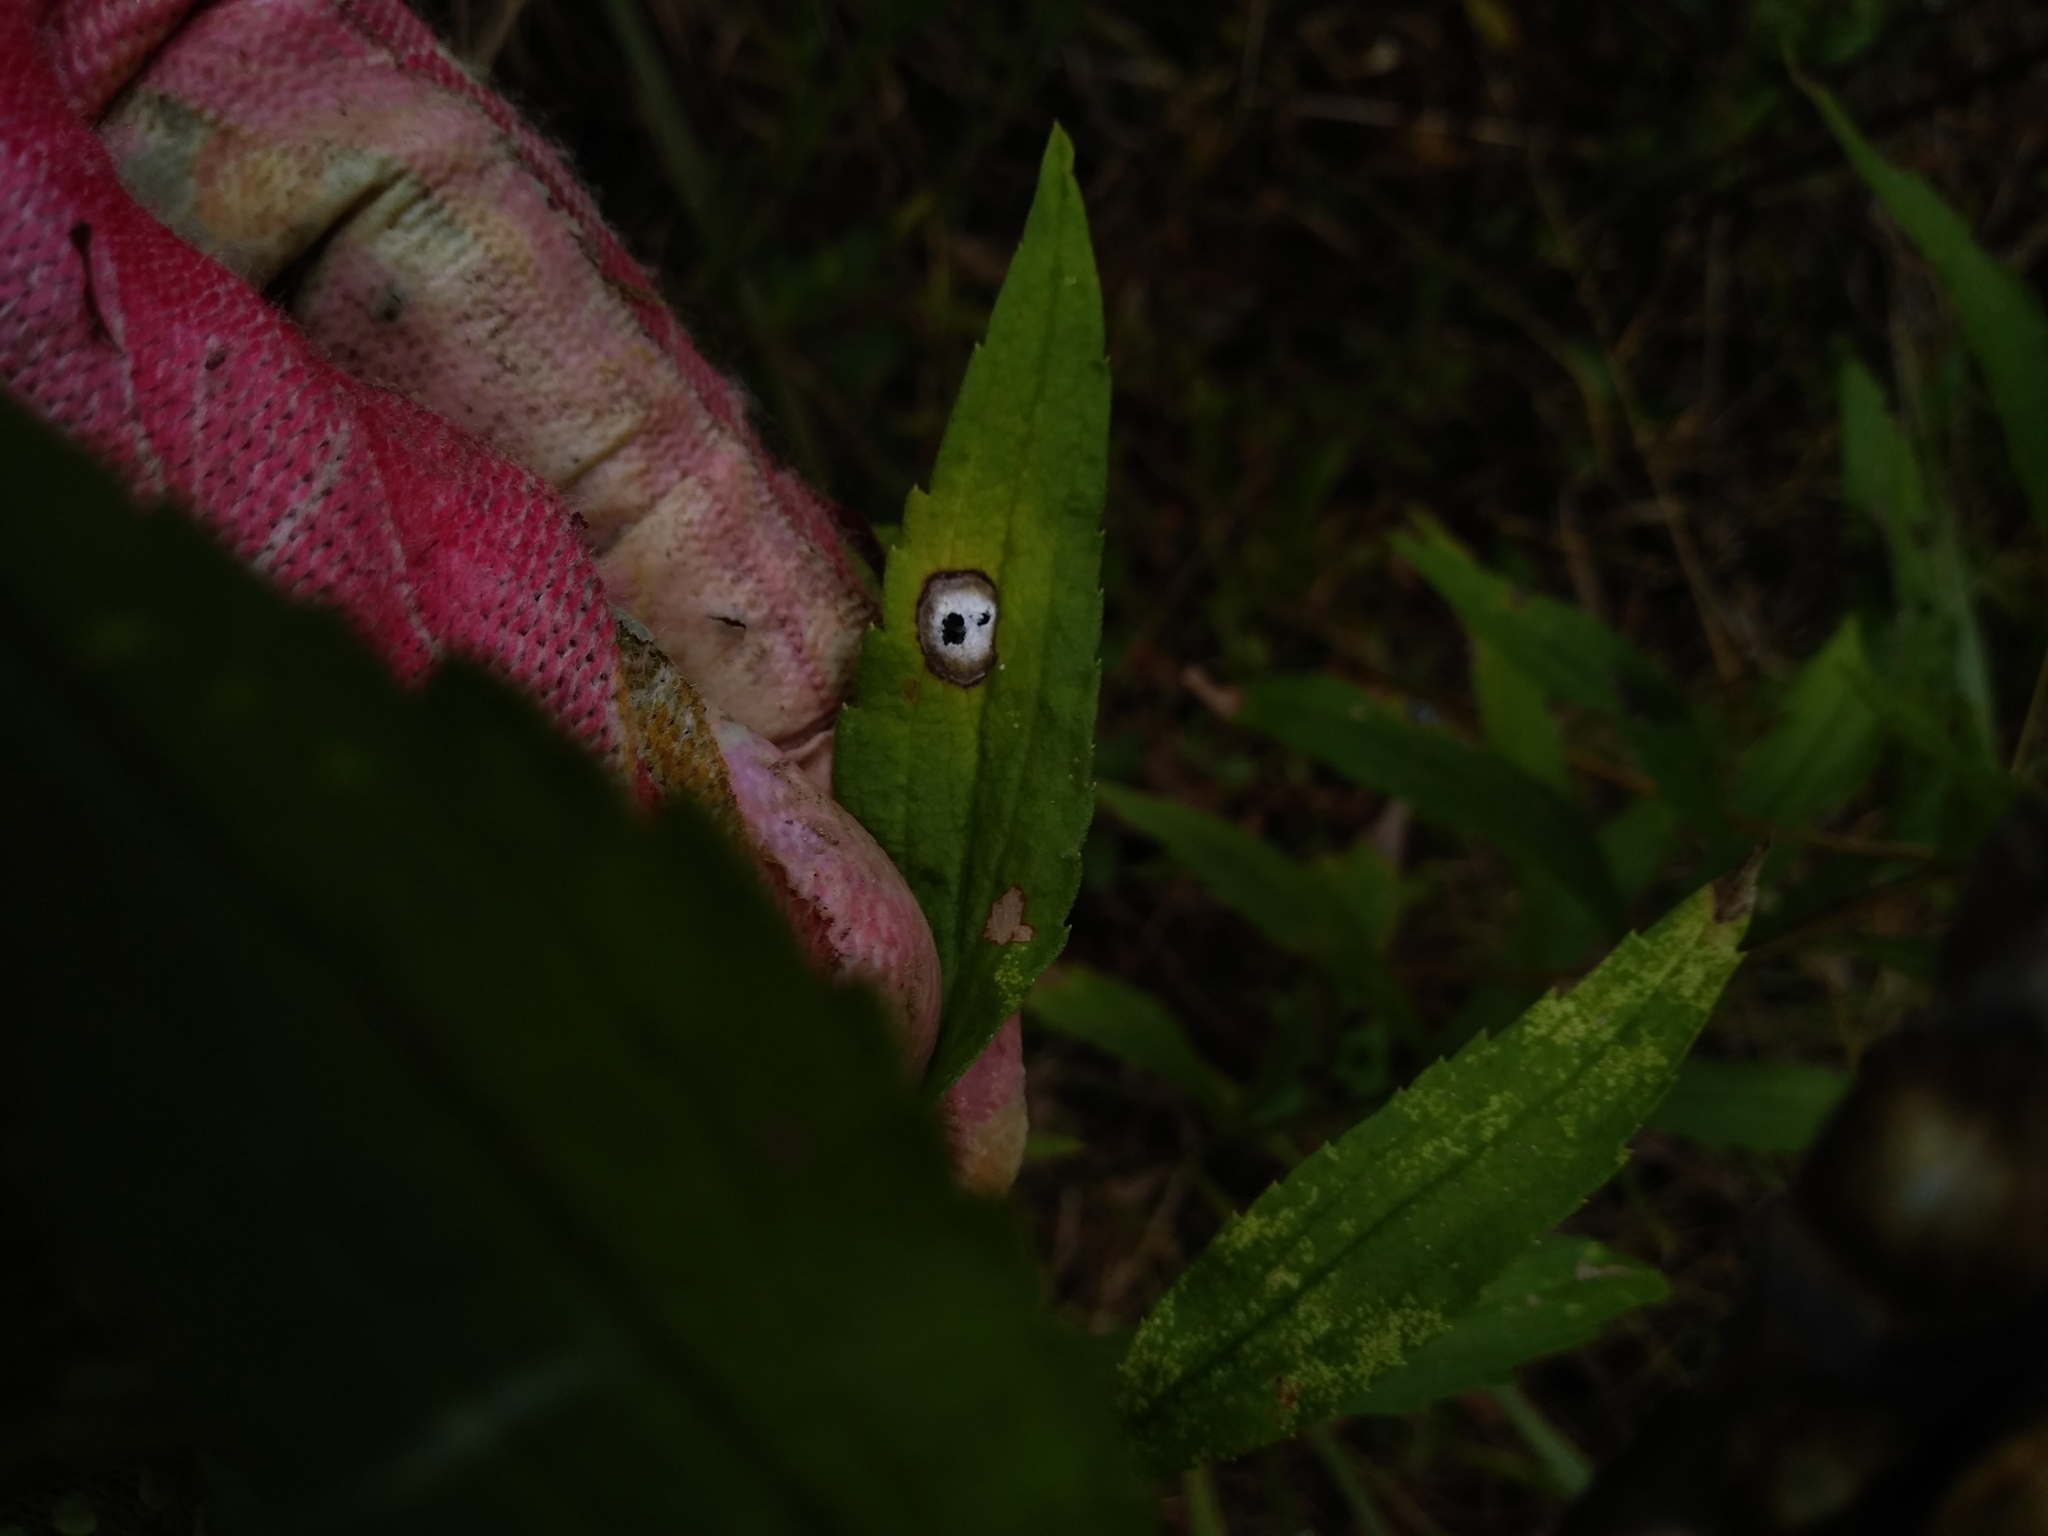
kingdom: Animalia
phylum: Arthropoda
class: Insecta
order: Diptera
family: Cecidomyiidae
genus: Asteromyia
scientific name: Asteromyia carbonifera
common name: Carbonifera goldenrod gall midge
